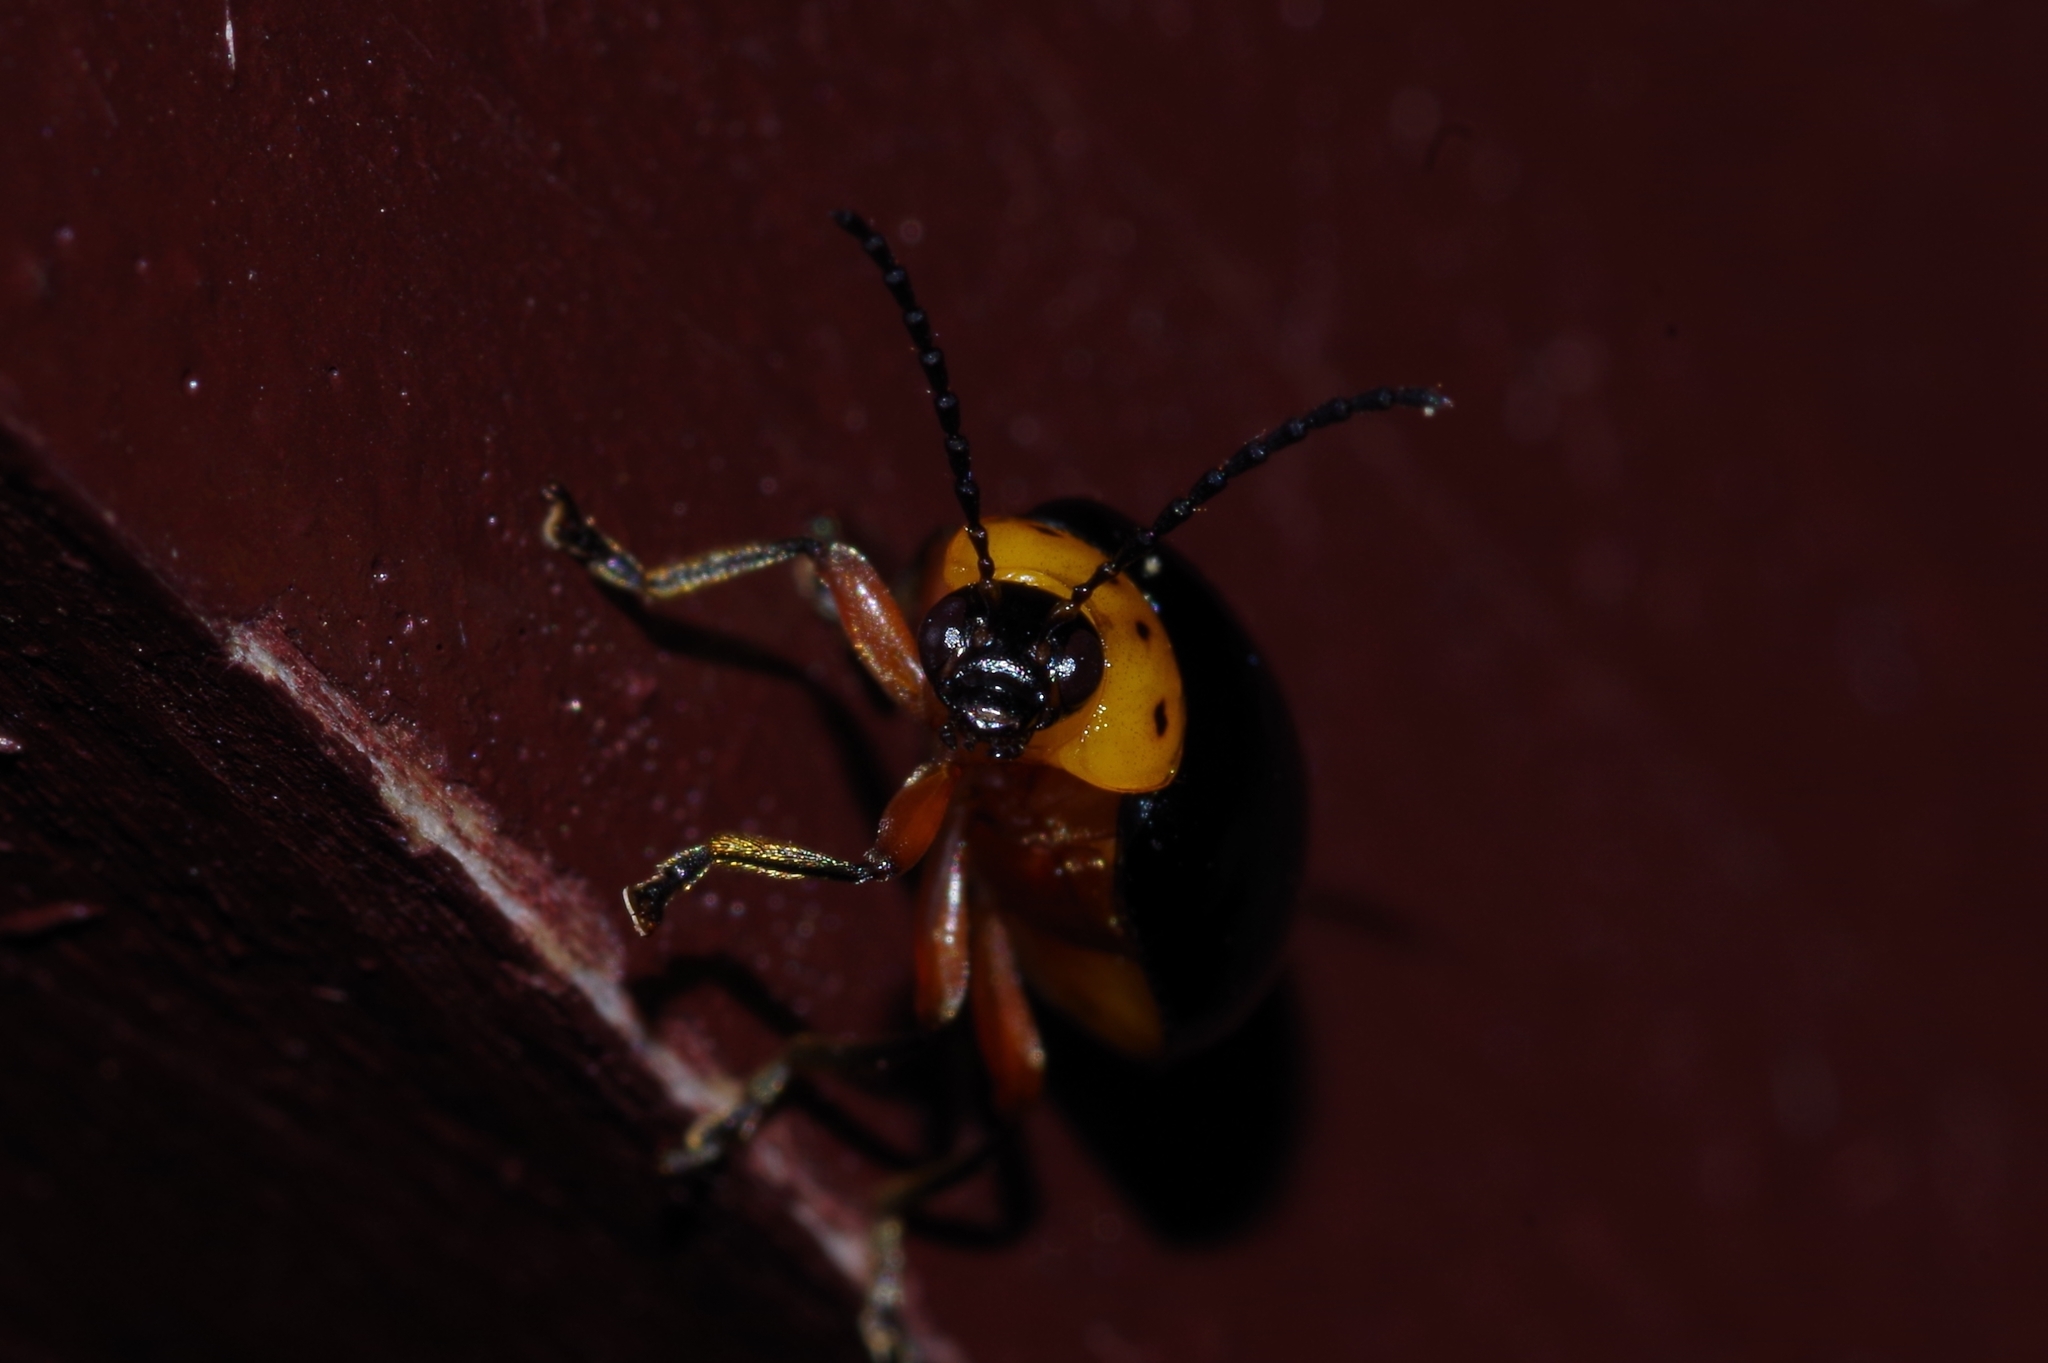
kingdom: Animalia
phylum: Arthropoda
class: Insecta
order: Coleoptera
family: Chrysomelidae
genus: Morphosphaera
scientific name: Morphosphaera caerulea
